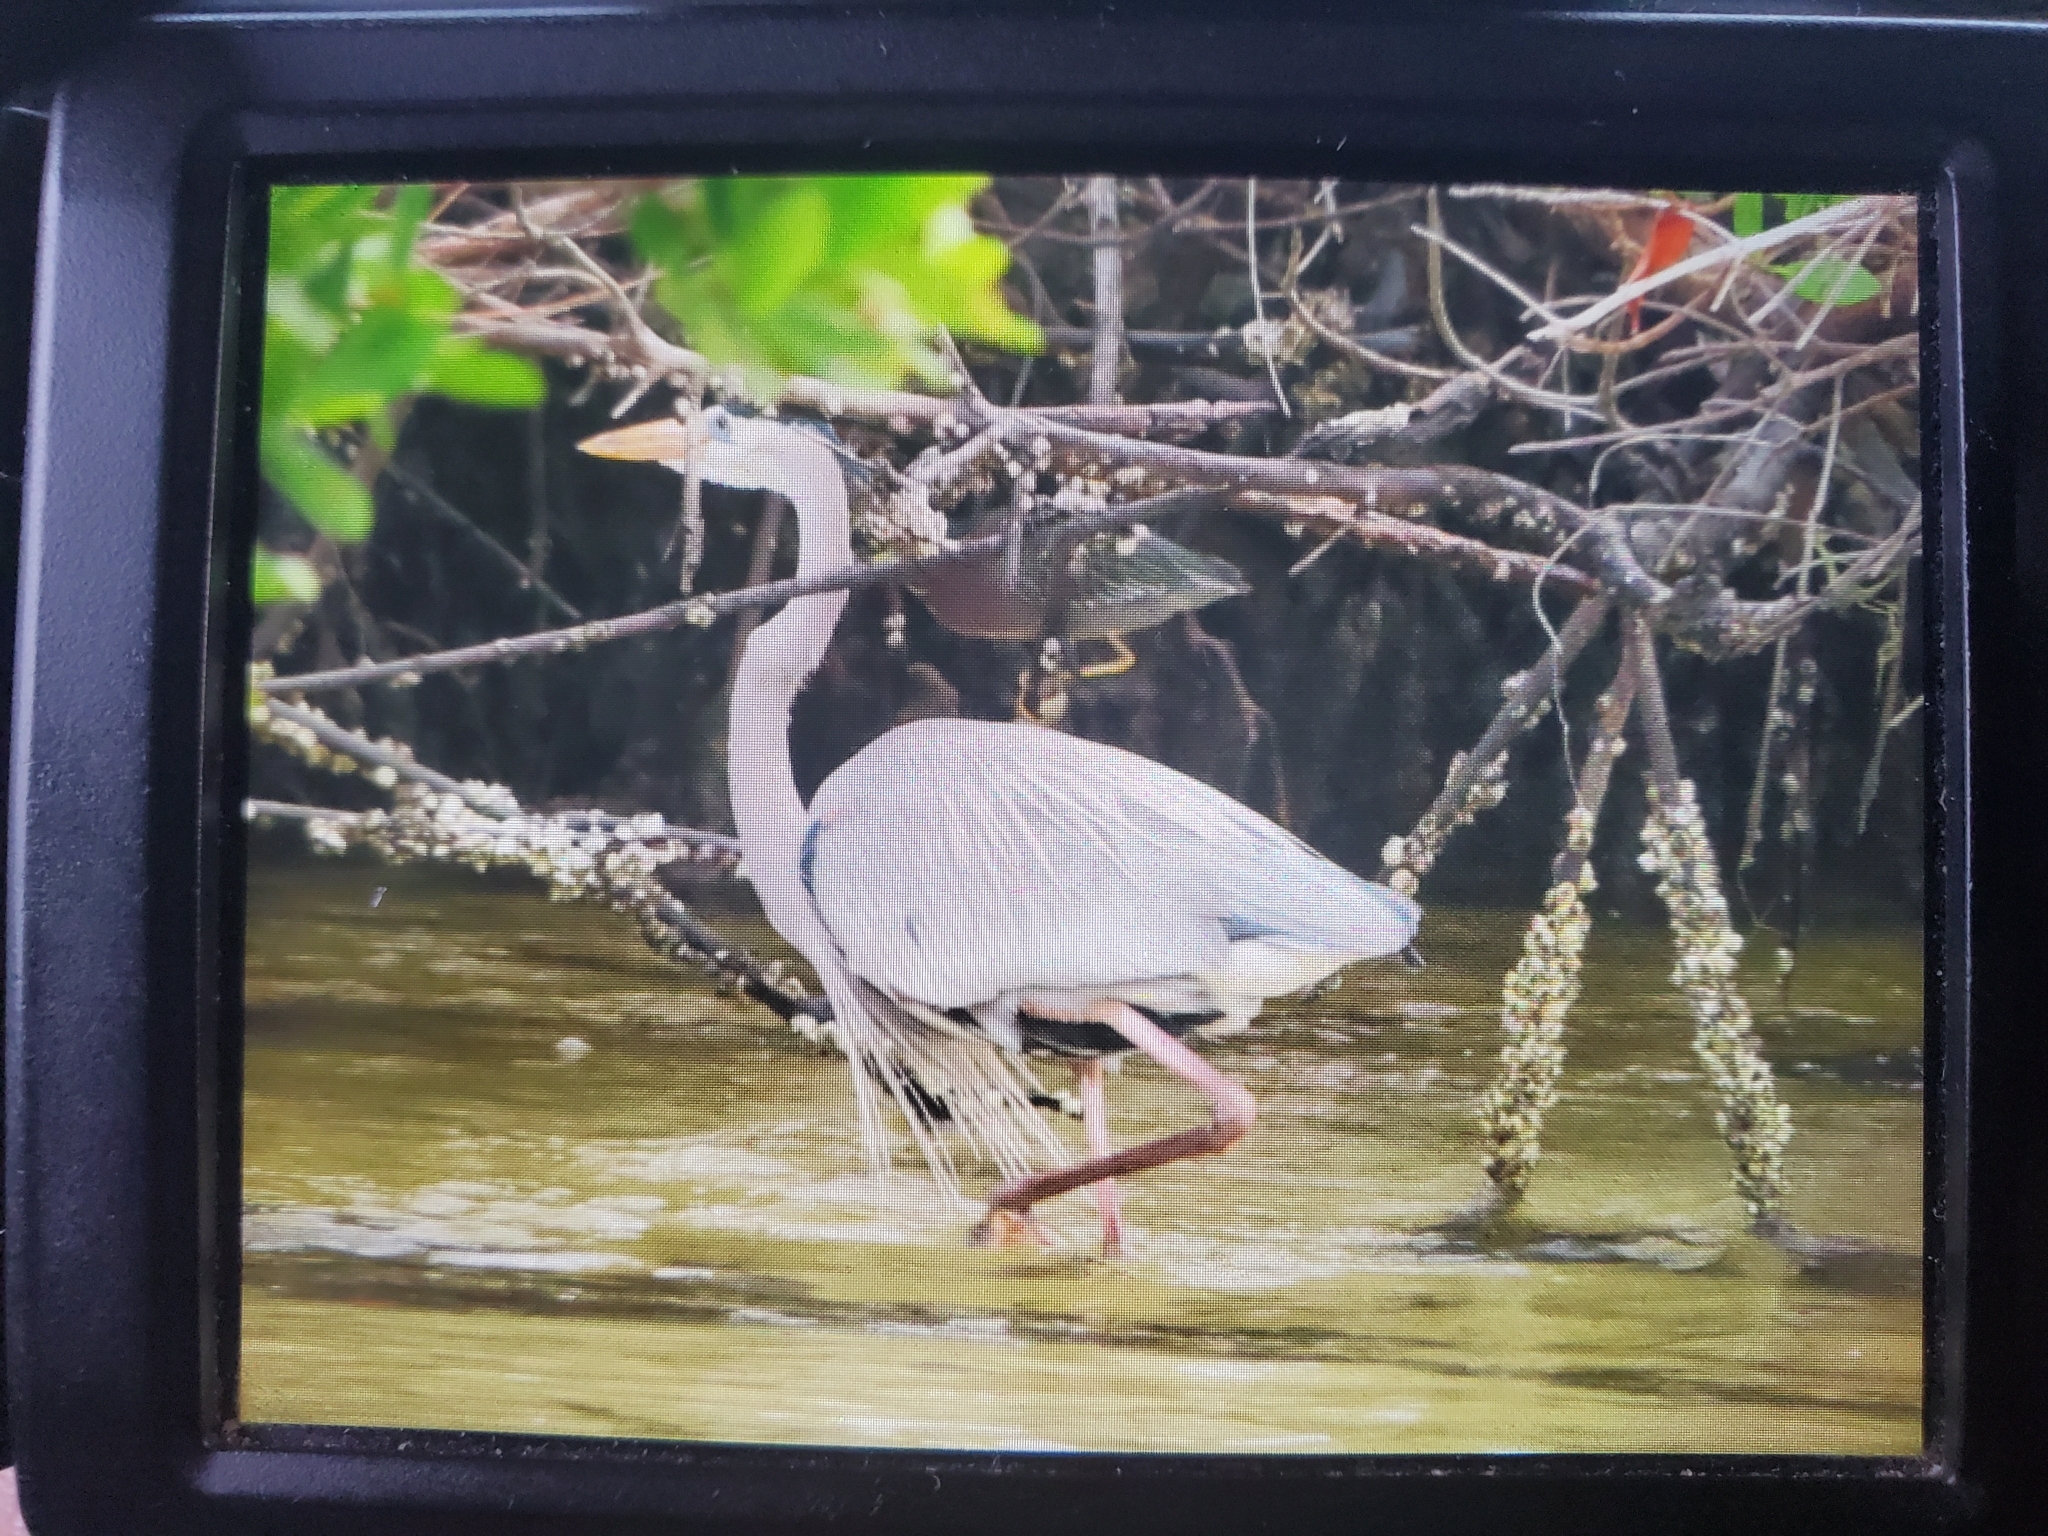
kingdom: Animalia
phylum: Chordata
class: Aves
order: Pelecaniformes
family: Ardeidae
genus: Ardea
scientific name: Ardea herodias
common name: Great blue heron
